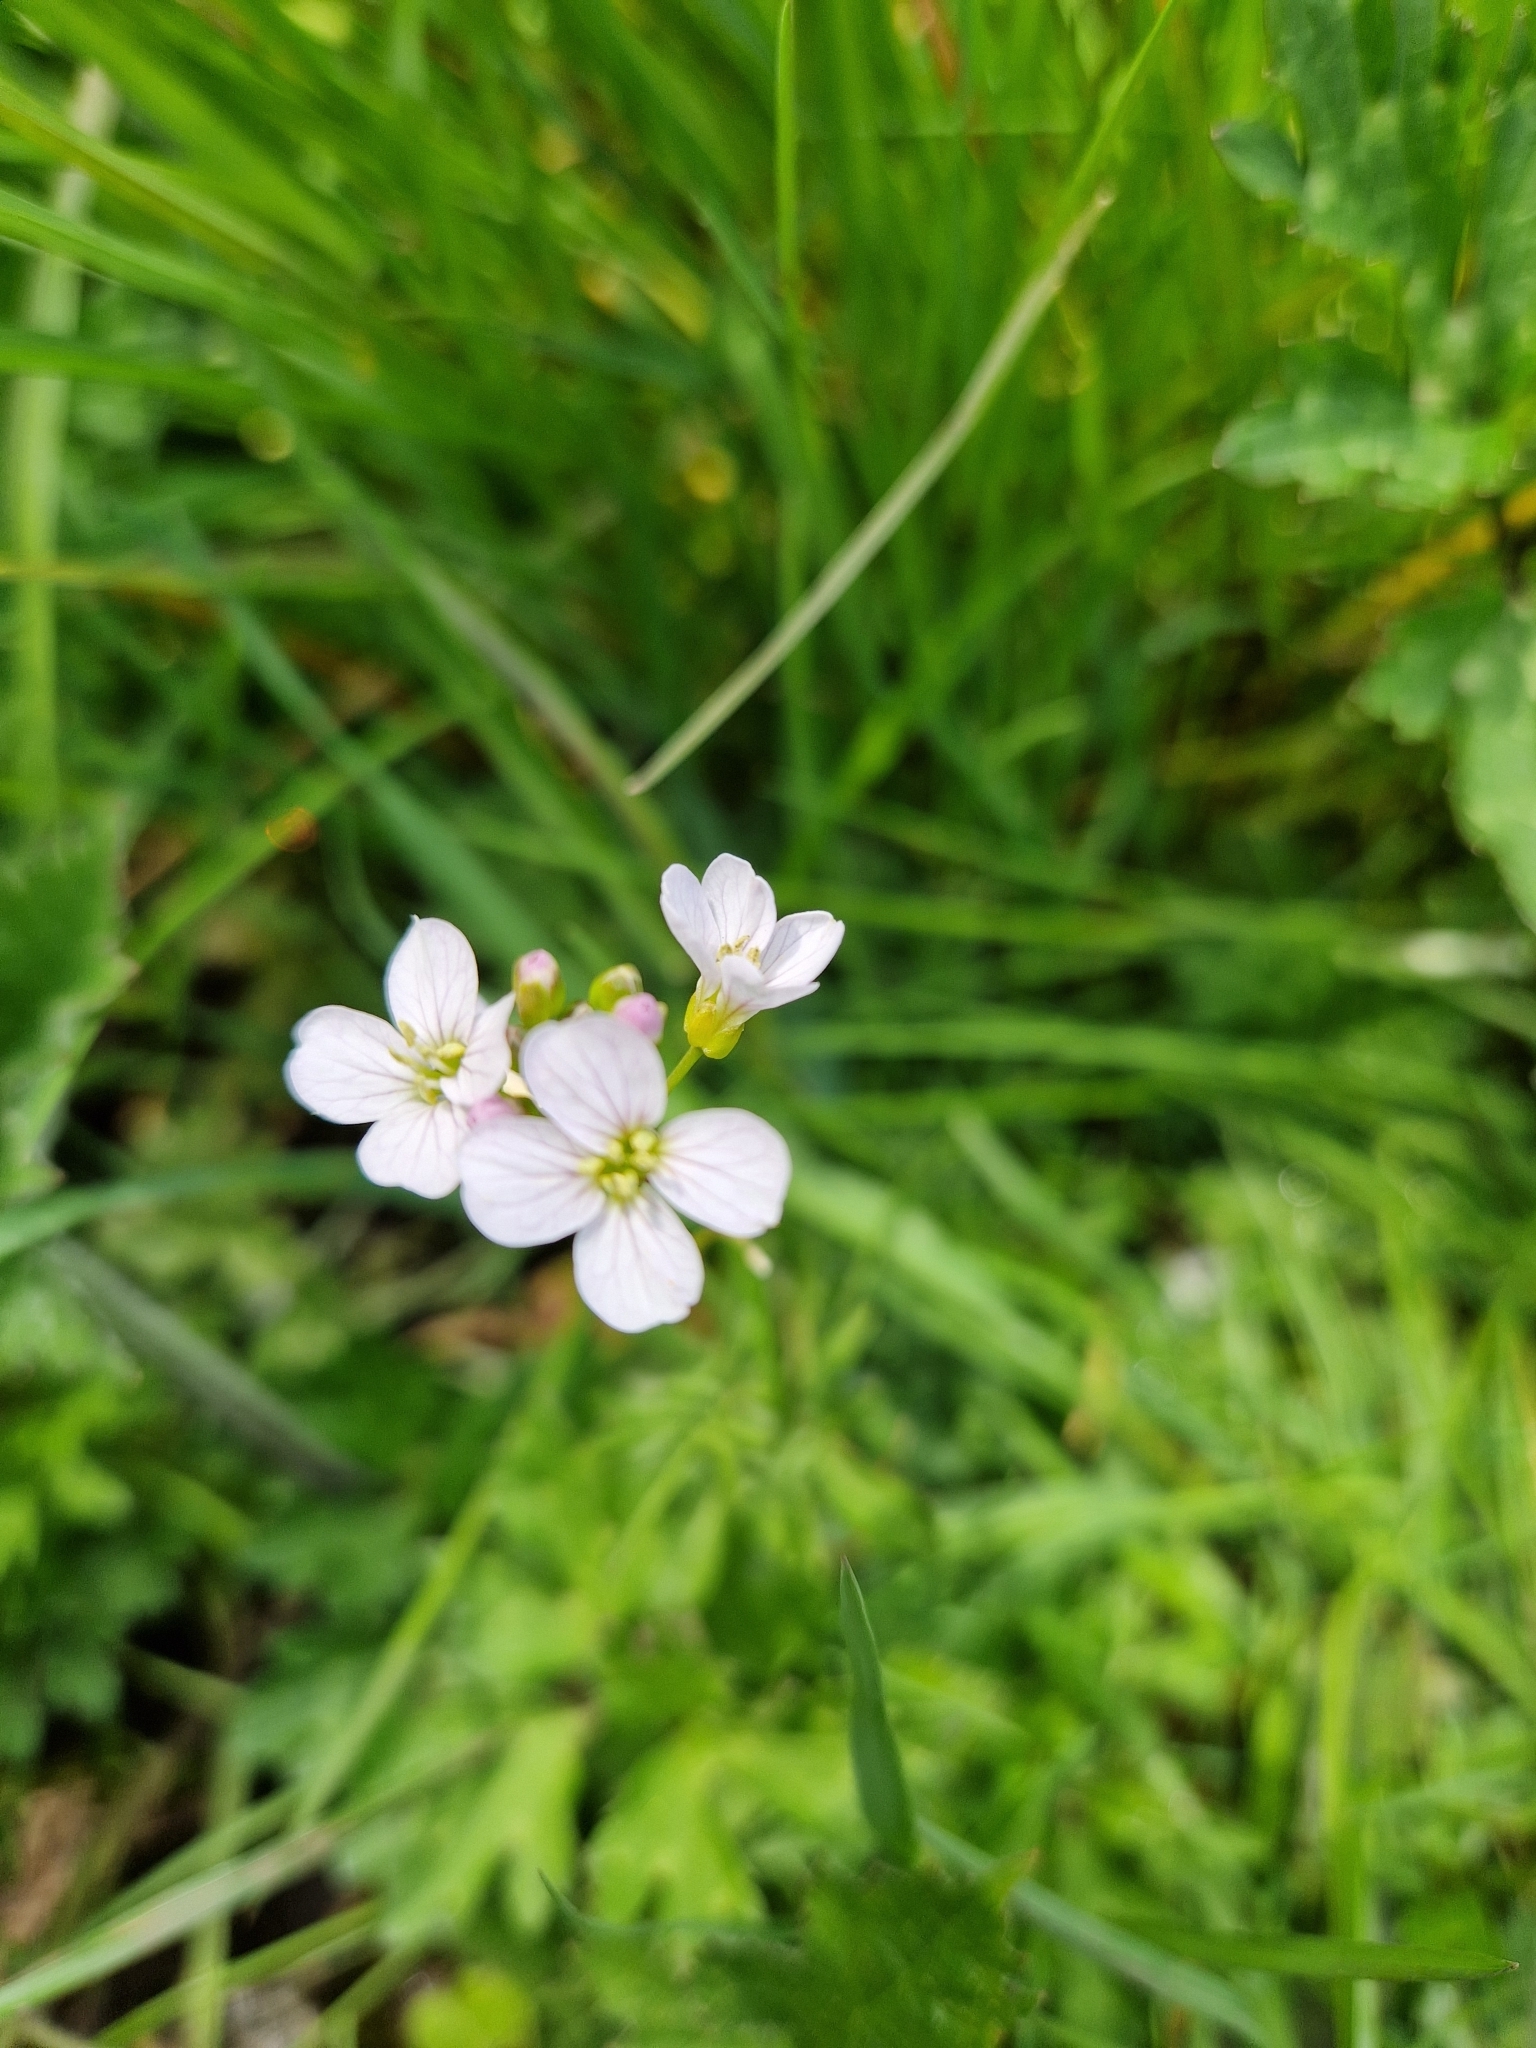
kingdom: Plantae
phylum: Tracheophyta
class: Magnoliopsida
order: Brassicales
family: Brassicaceae
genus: Cardamine
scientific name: Cardamine pratensis
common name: Cuckoo flower
